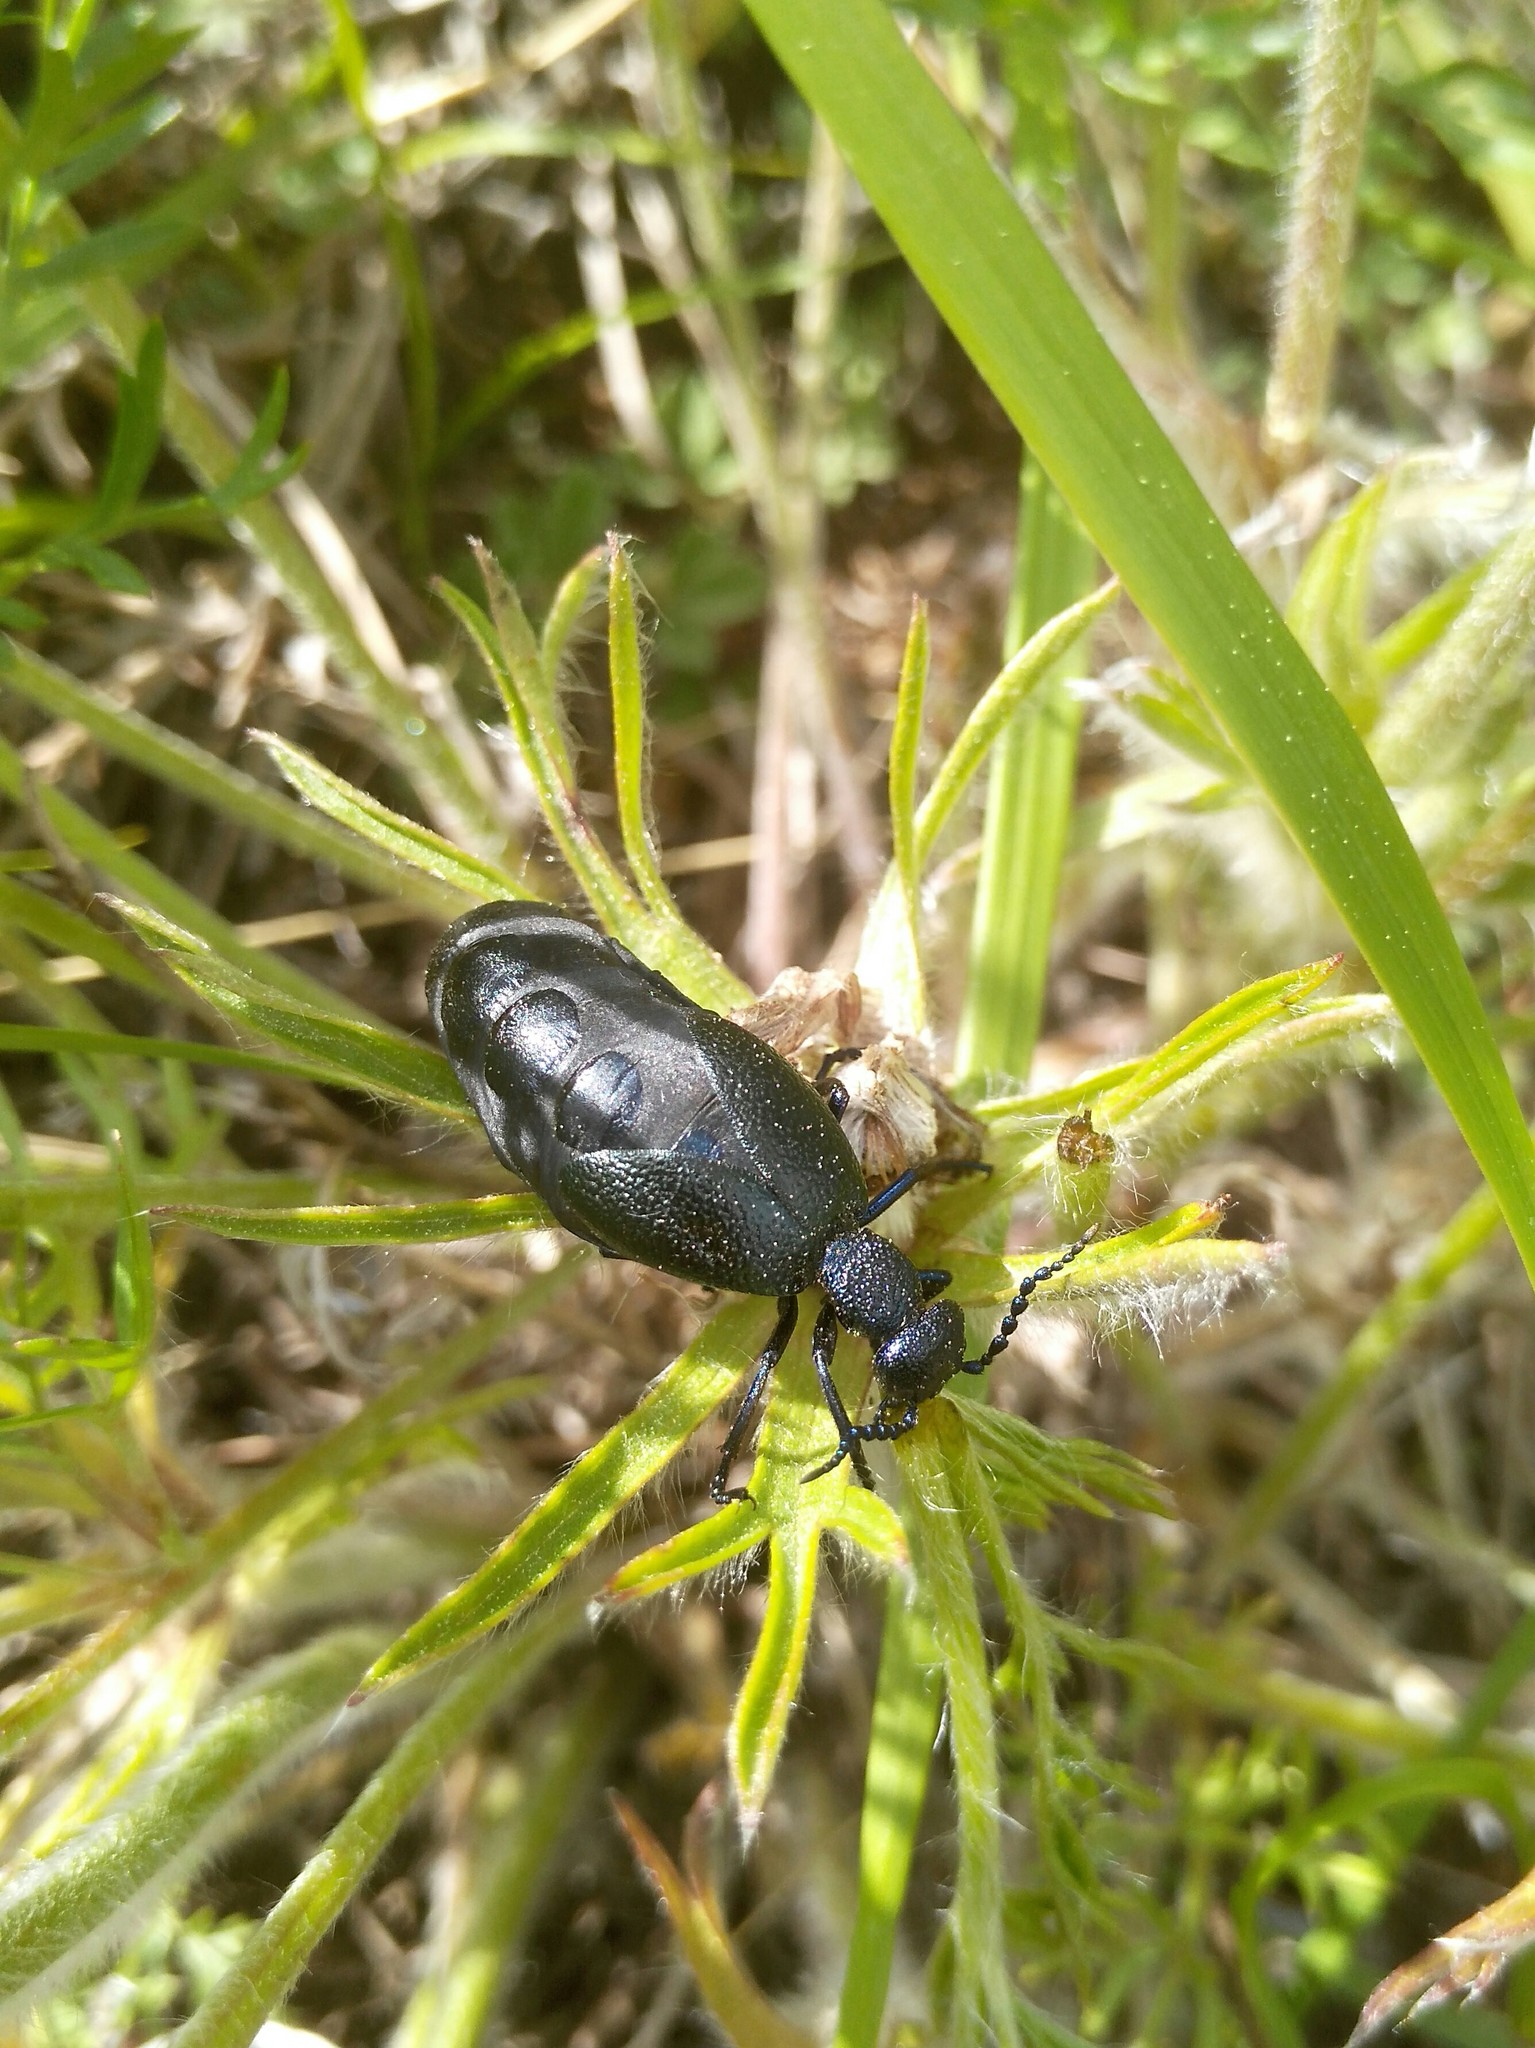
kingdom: Animalia
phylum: Arthropoda
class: Insecta
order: Coleoptera
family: Meloidae
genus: Meloe
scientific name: Meloe proscarabaeus
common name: Black oil-beetle
